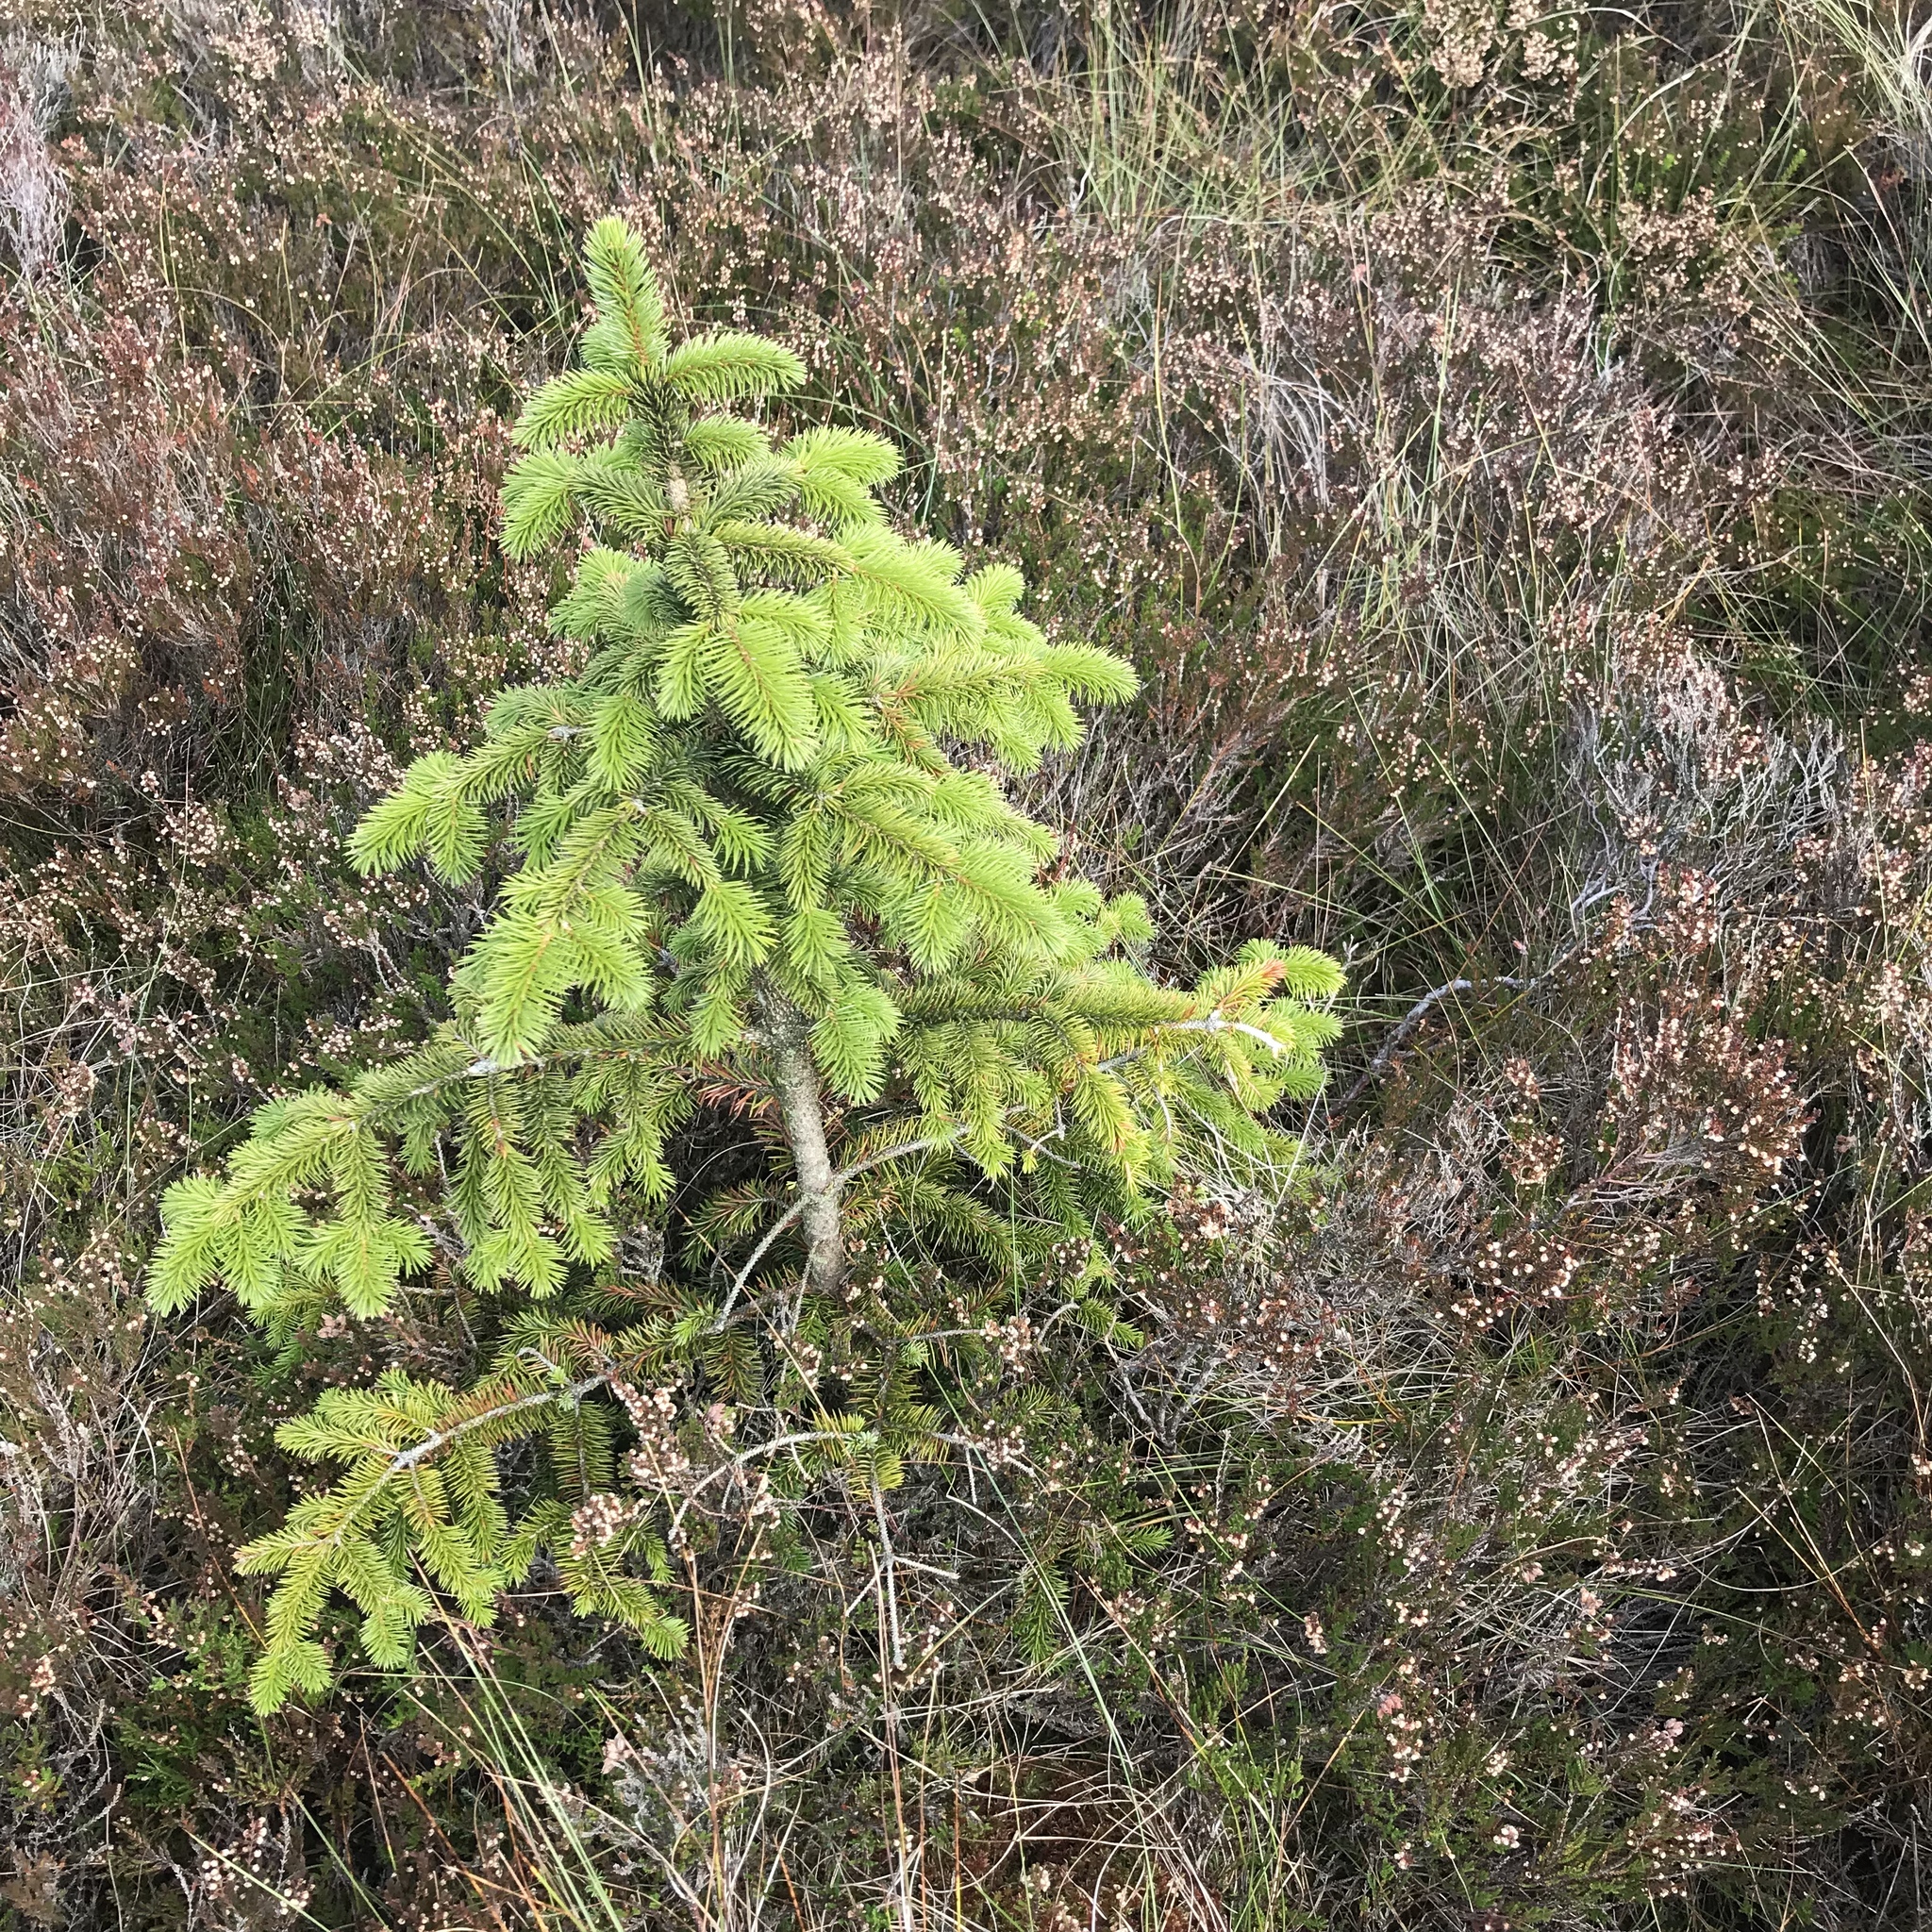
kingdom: Plantae
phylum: Tracheophyta
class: Pinopsida
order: Pinales
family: Pinaceae
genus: Picea
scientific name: Picea sitchensis
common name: Sitka spruce
